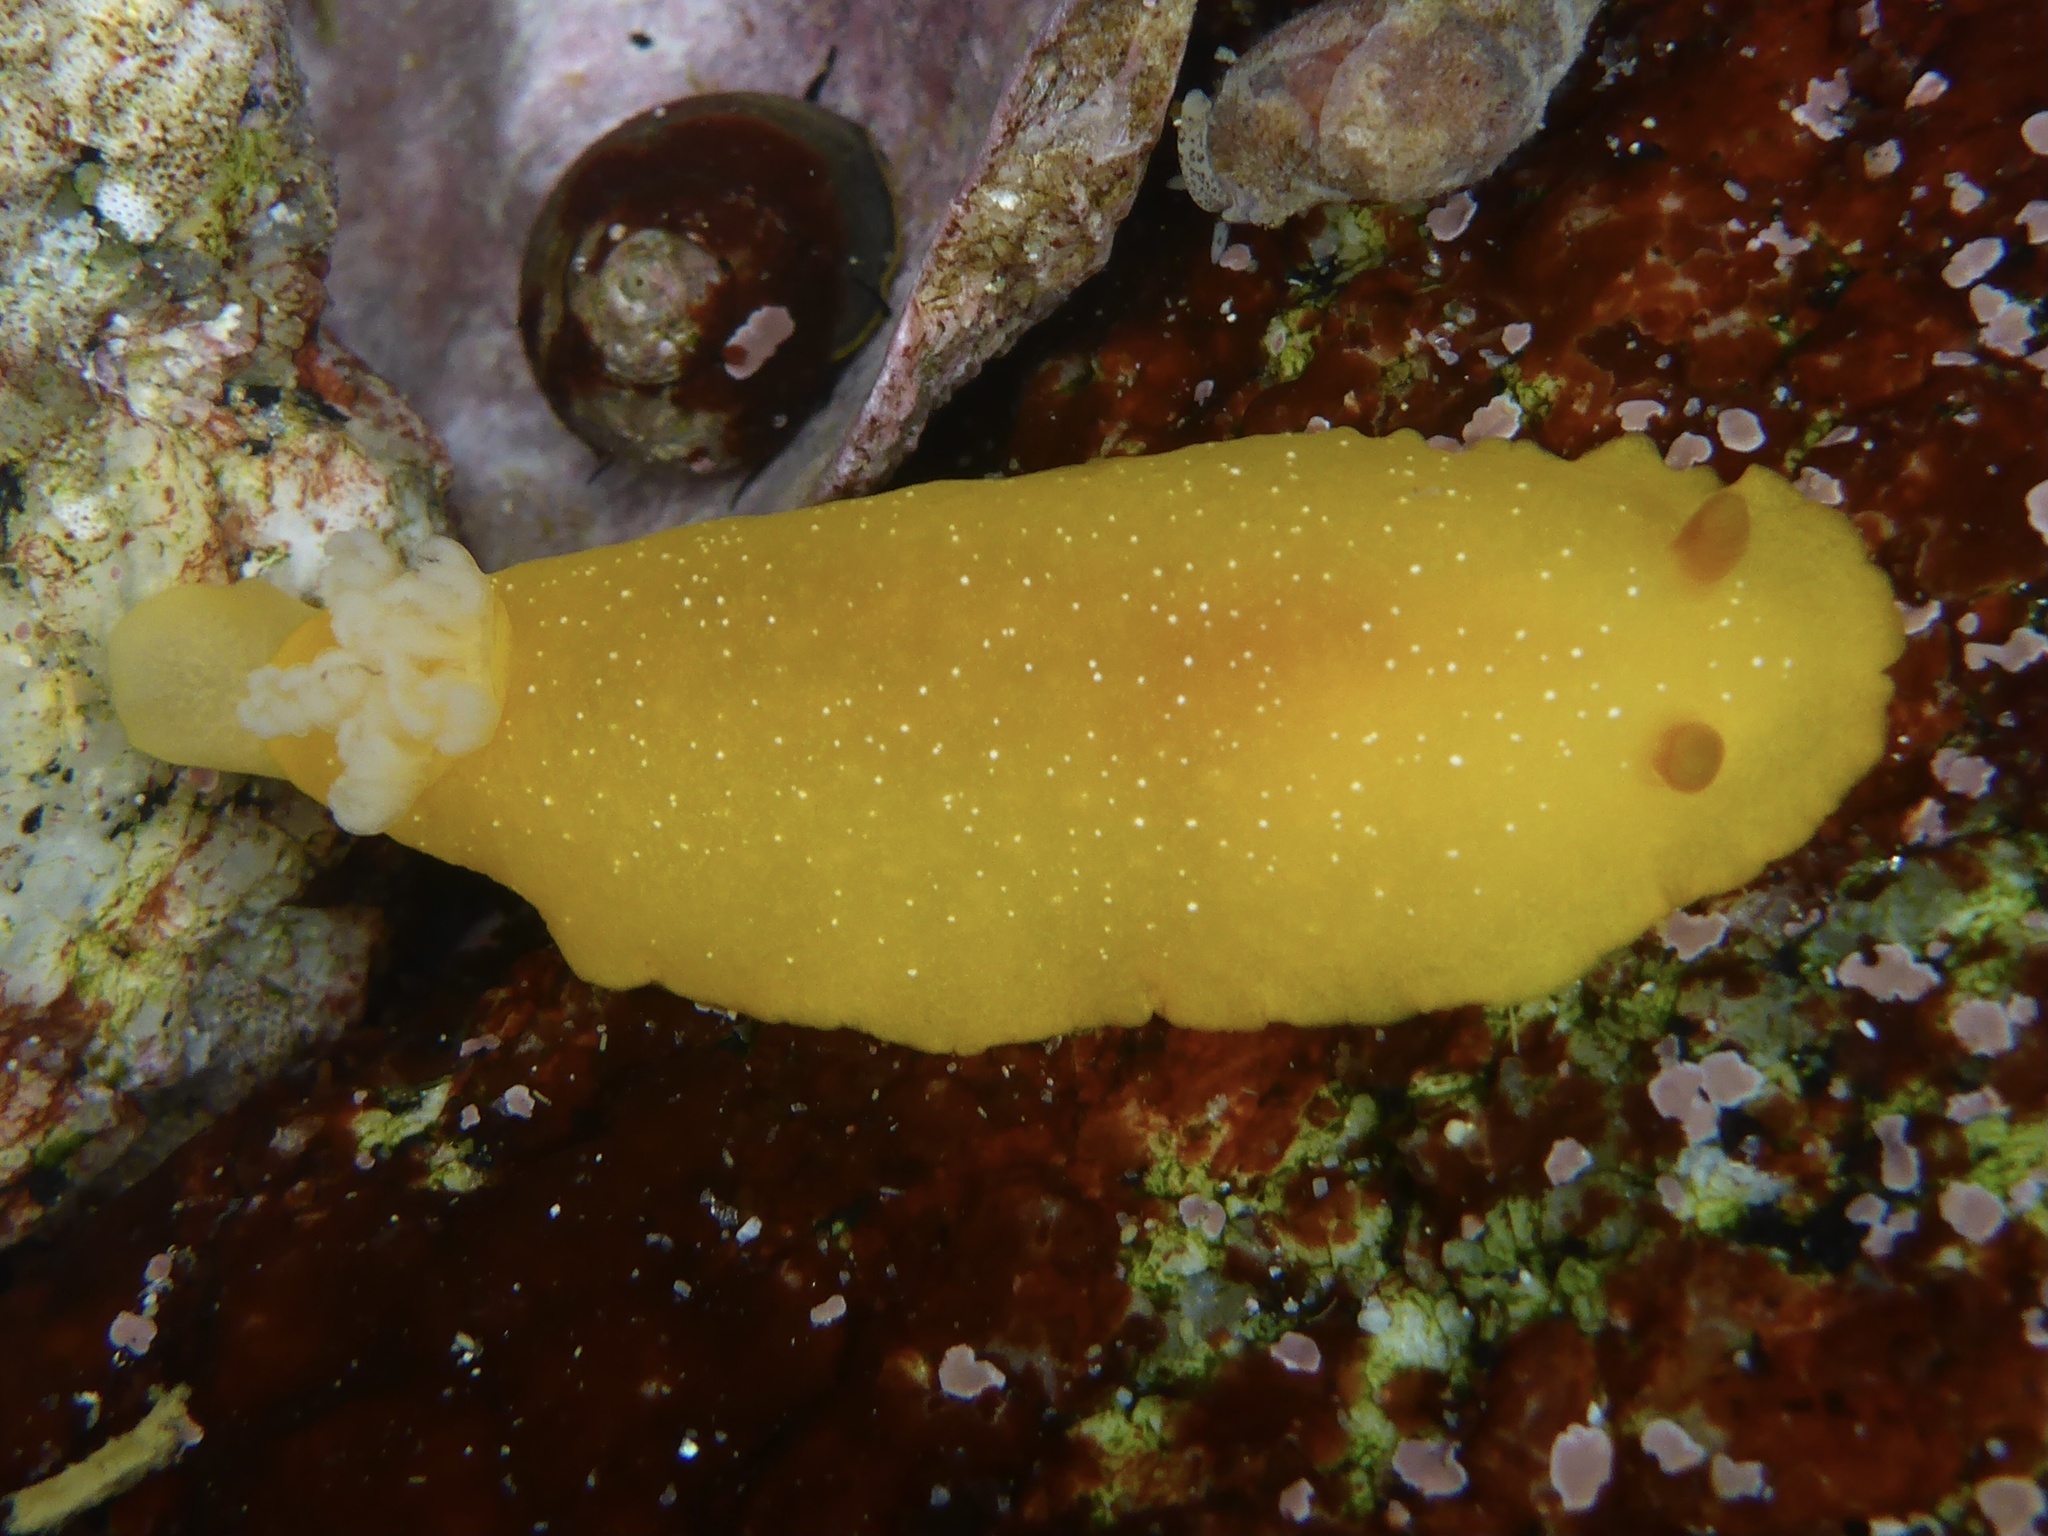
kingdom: Animalia
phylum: Mollusca
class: Gastropoda
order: Nudibranchia
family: Dendrodorididae
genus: Doriopsilla
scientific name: Doriopsilla fulva
